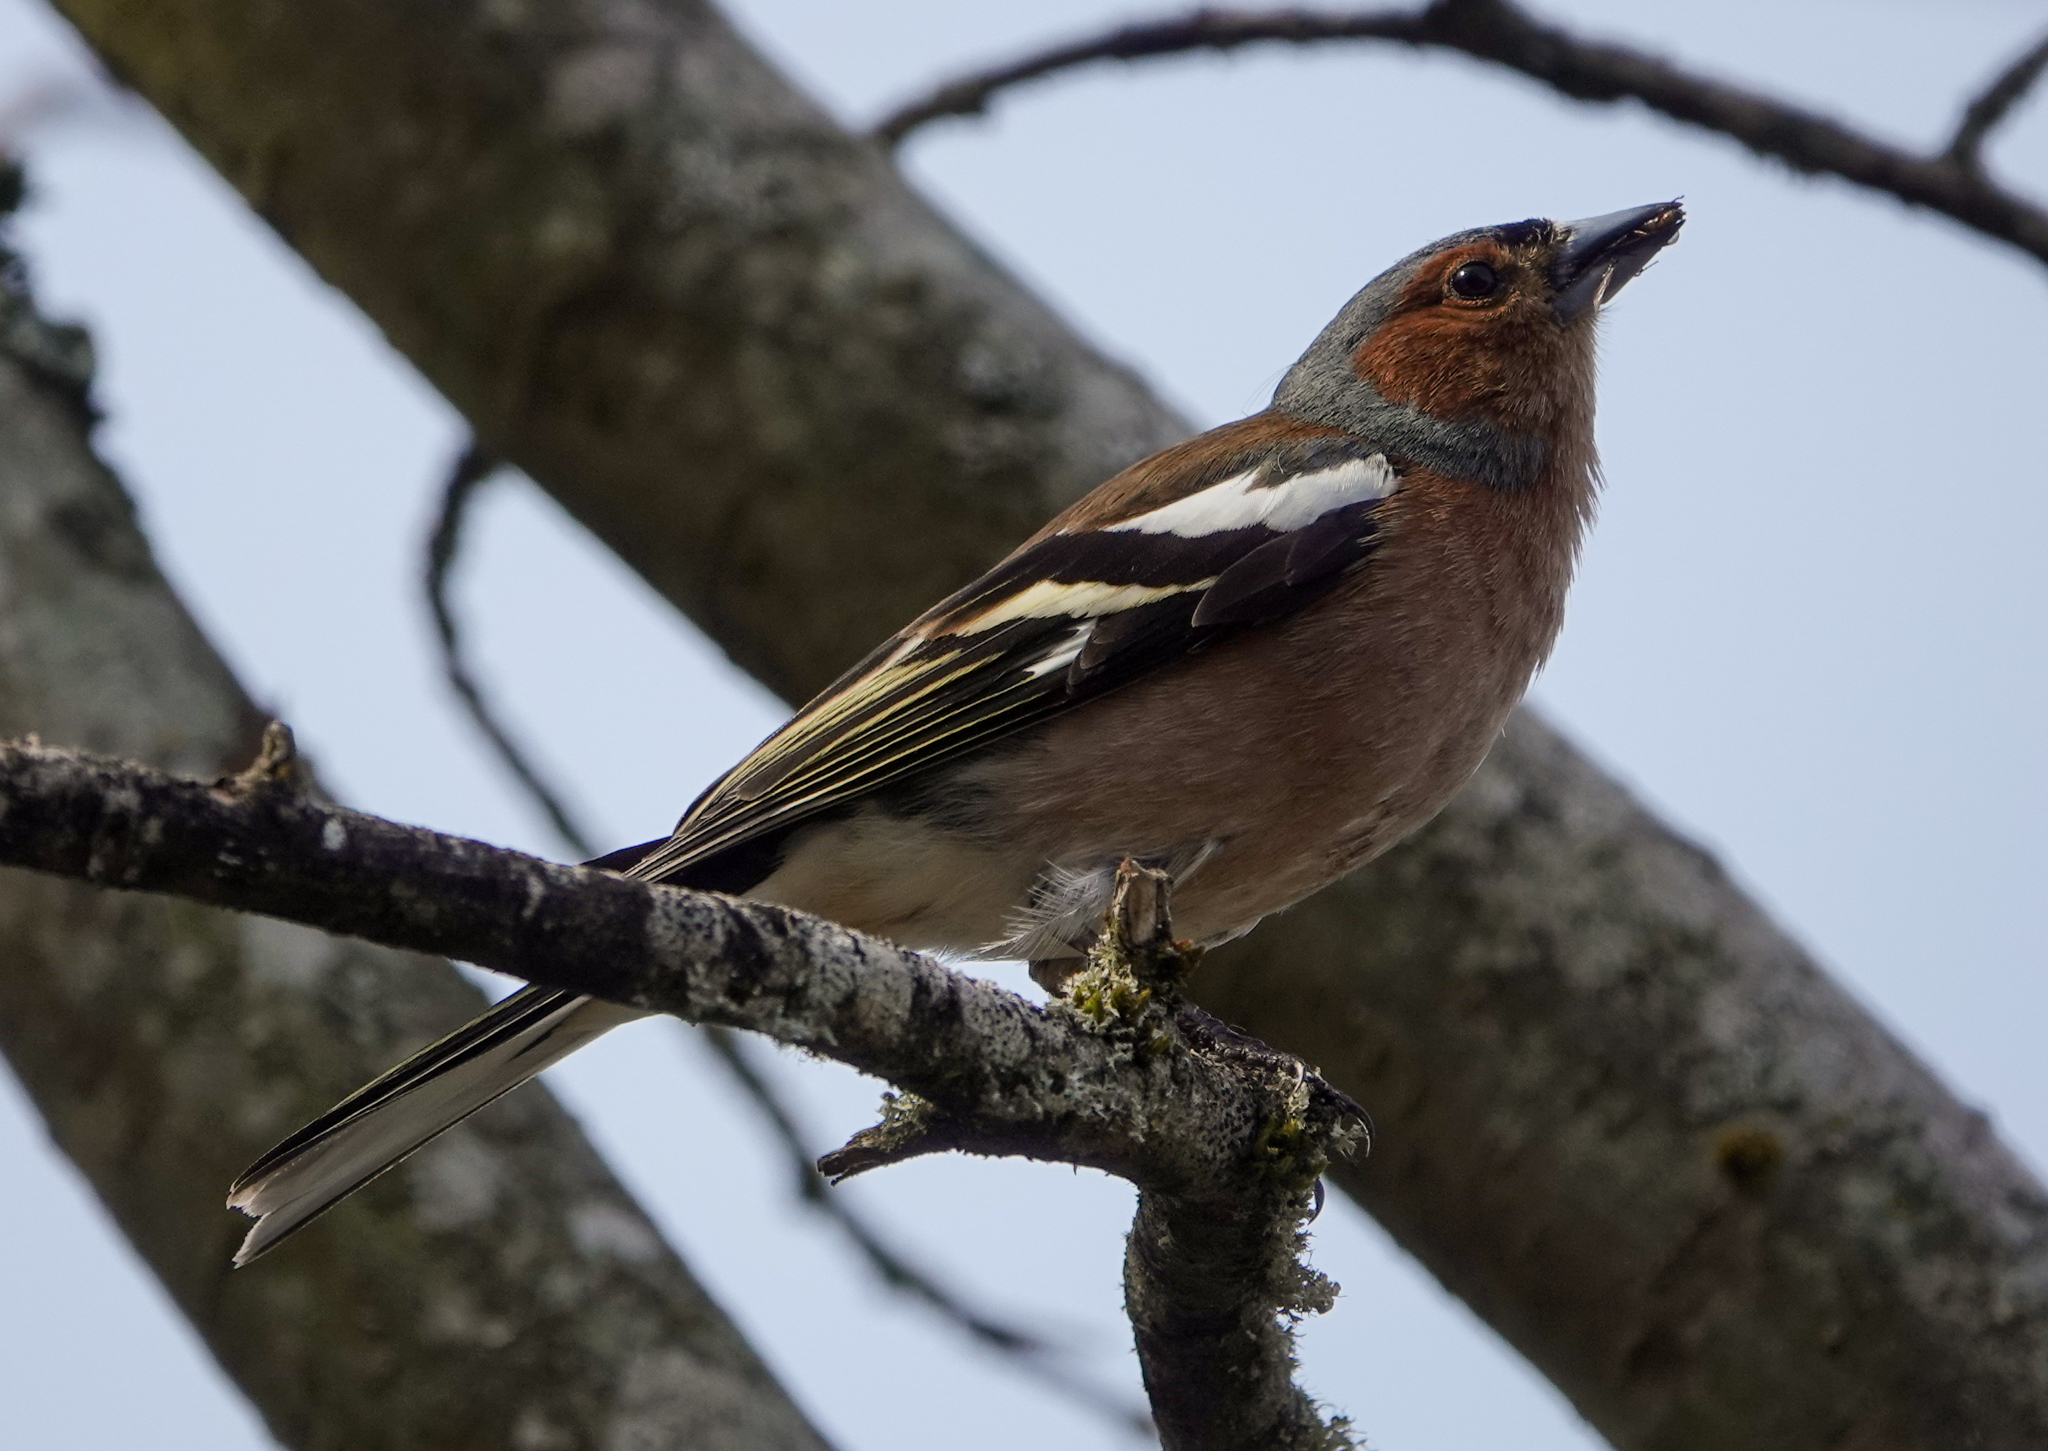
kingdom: Animalia
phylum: Chordata
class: Aves
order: Passeriformes
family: Fringillidae
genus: Fringilla
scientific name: Fringilla coelebs
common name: Common chaffinch
